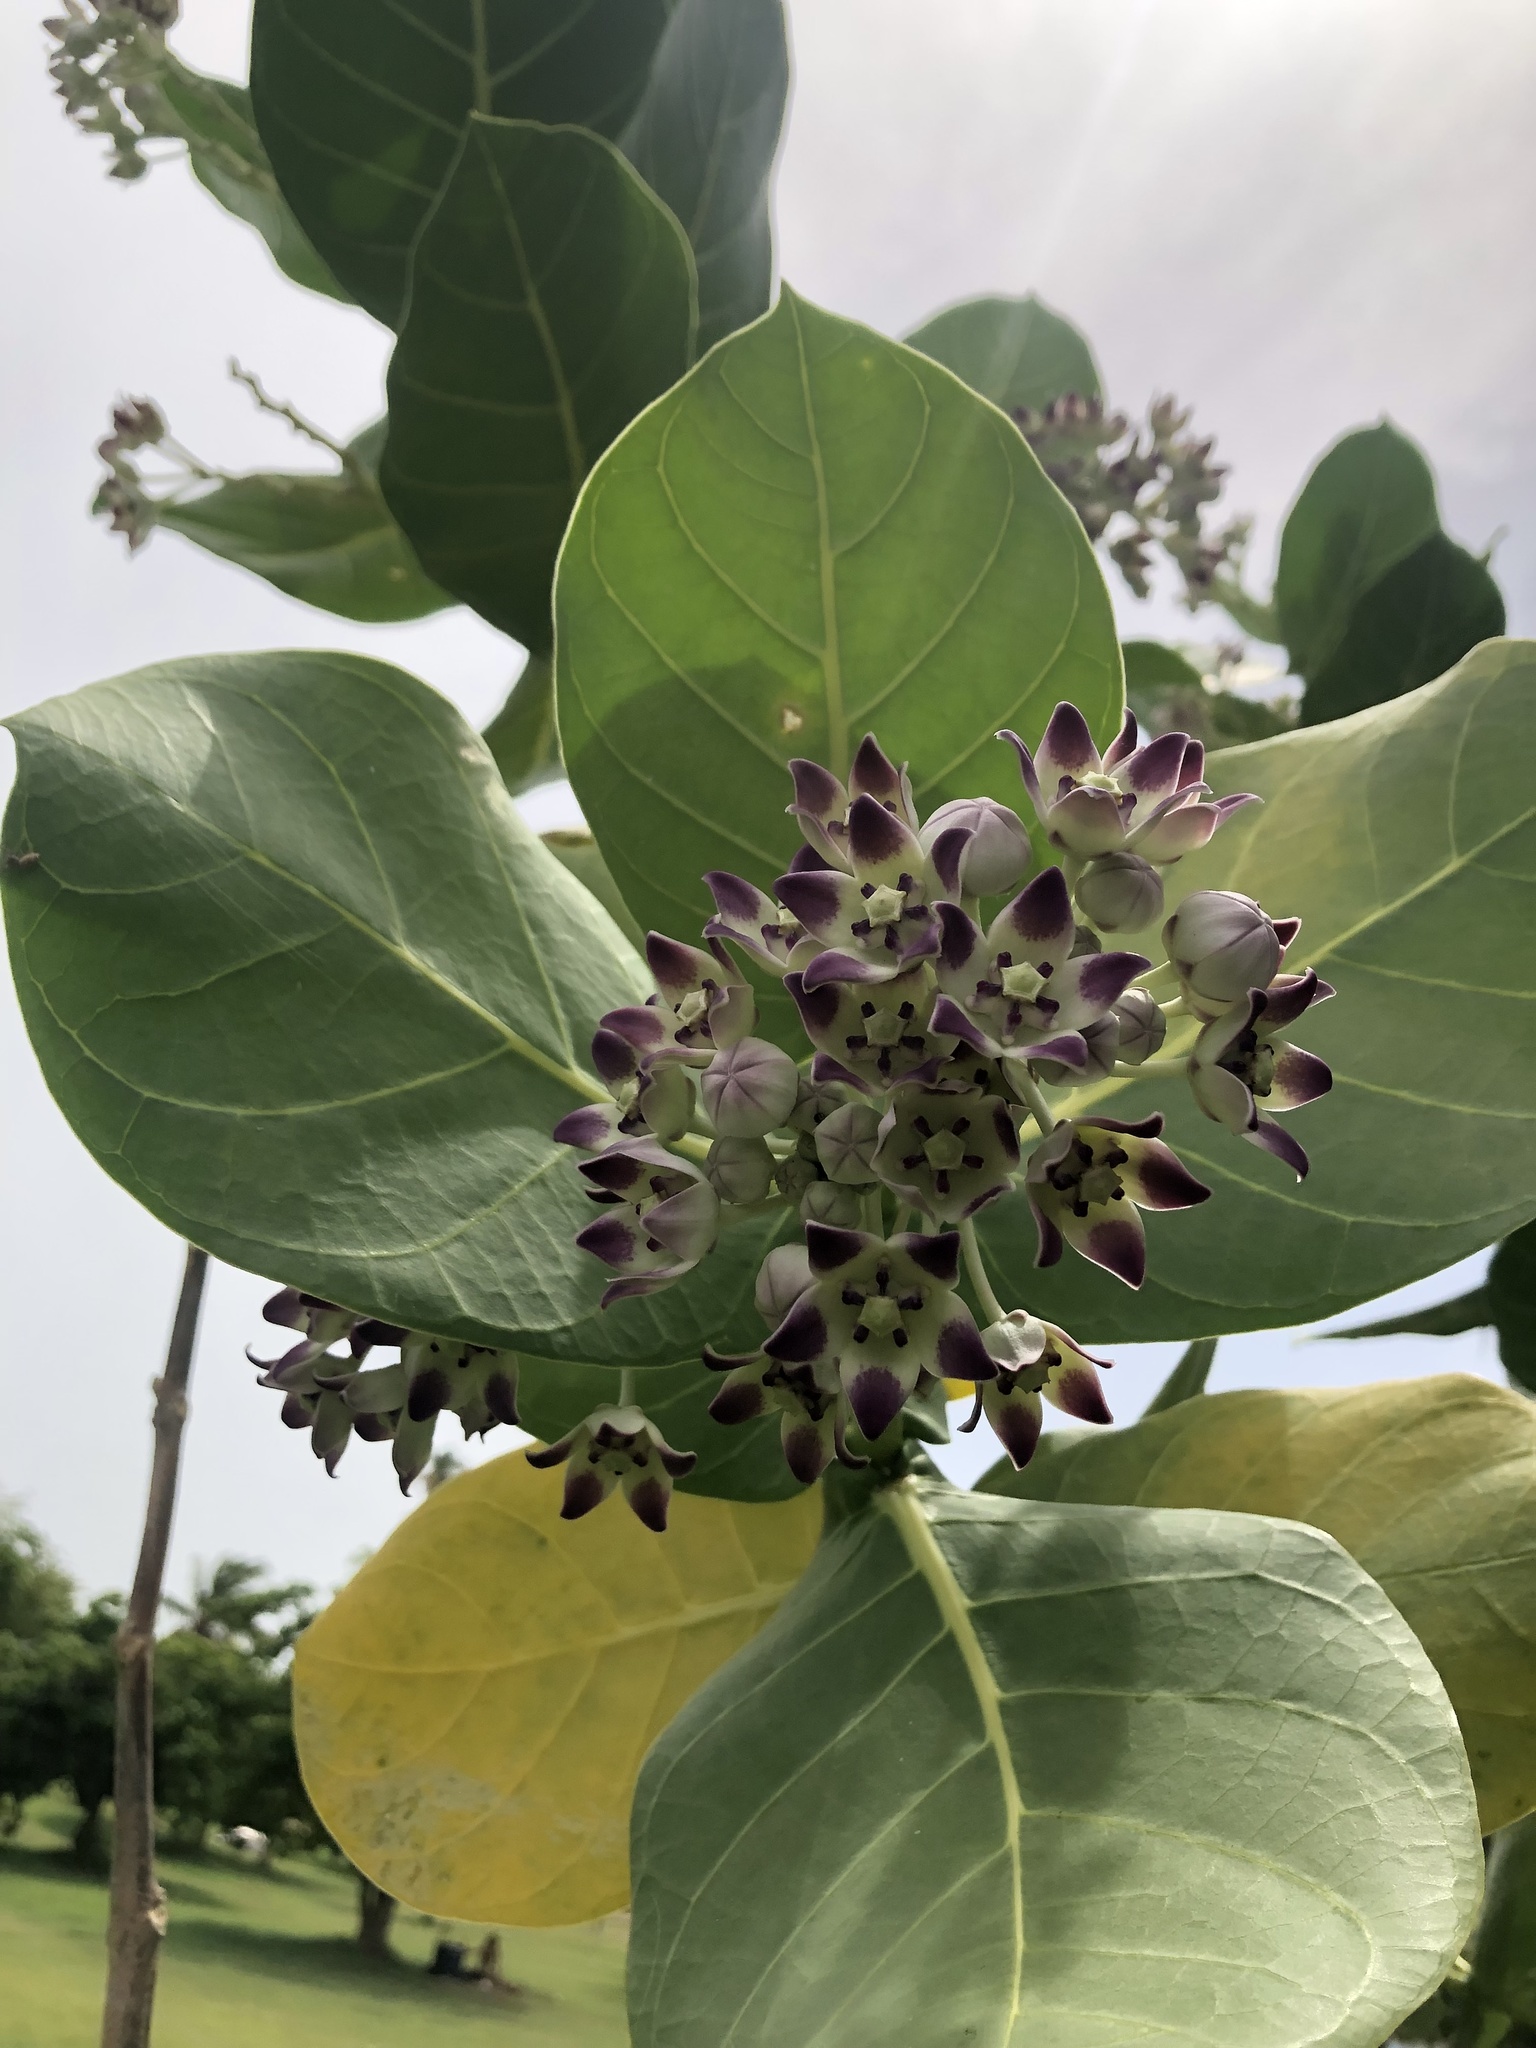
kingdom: Plantae
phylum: Tracheophyta
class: Magnoliopsida
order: Gentianales
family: Apocynaceae
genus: Calotropis
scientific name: Calotropis procera
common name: Roostertree
